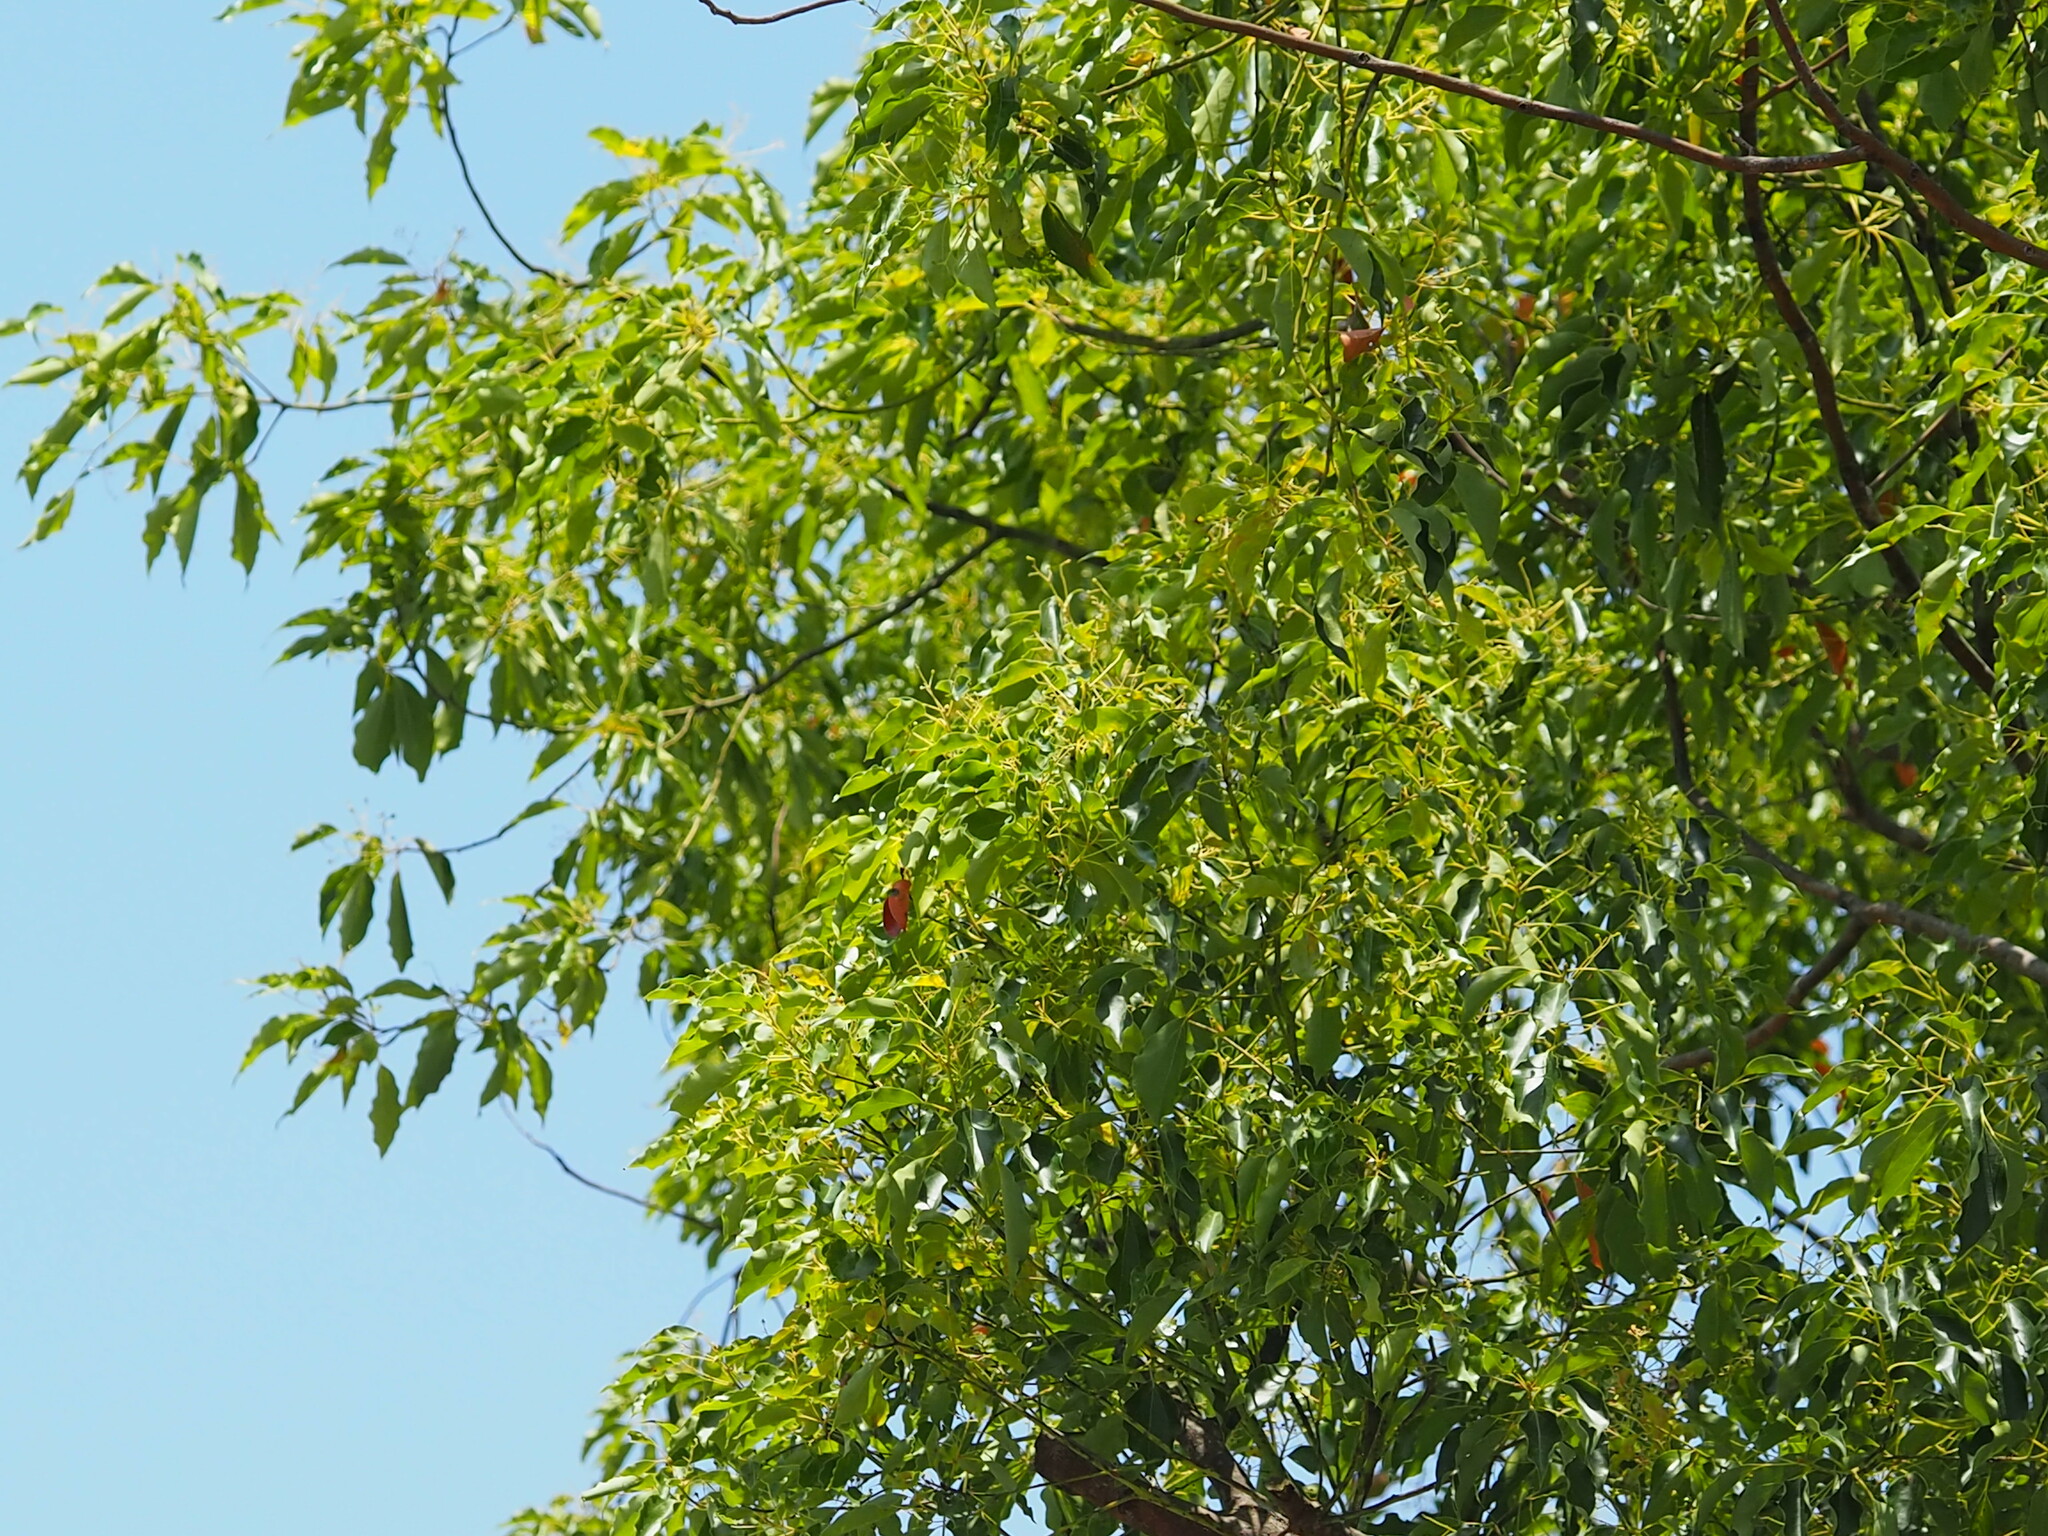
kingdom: Plantae
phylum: Tracheophyta
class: Magnoliopsida
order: Laurales
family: Lauraceae
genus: Cinnamomum
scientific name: Cinnamomum camphora
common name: Camphortree
